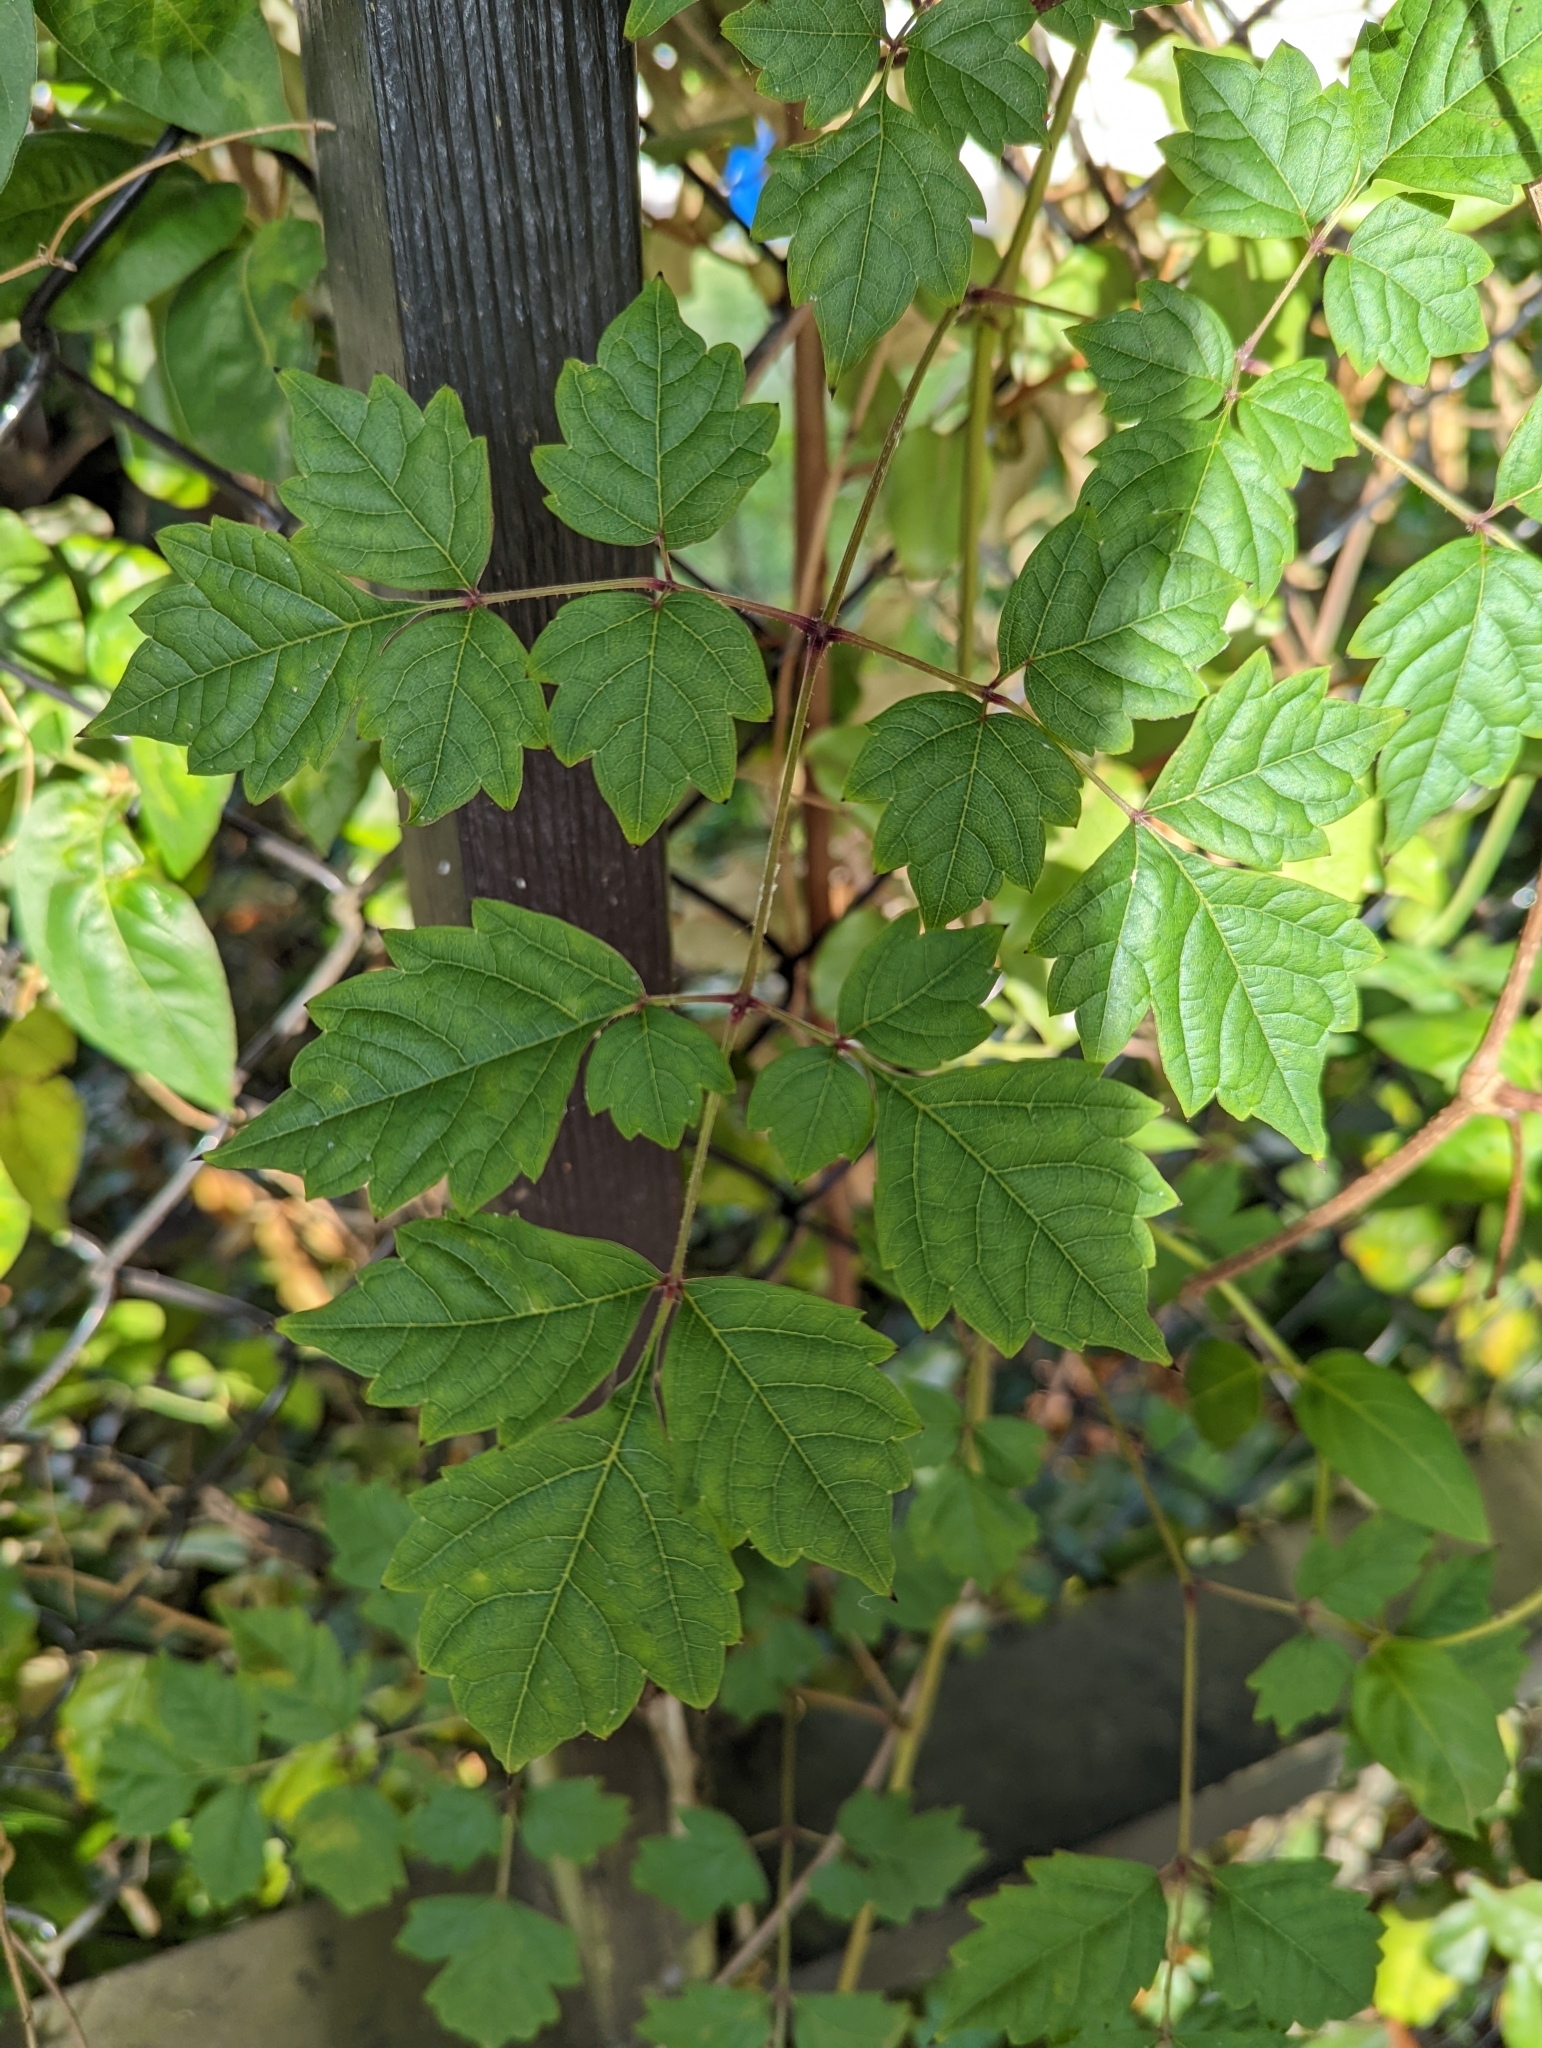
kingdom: Plantae
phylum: Tracheophyta
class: Magnoliopsida
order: Vitales
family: Vitaceae
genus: Nekemias
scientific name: Nekemias arborea
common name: Peppervine
